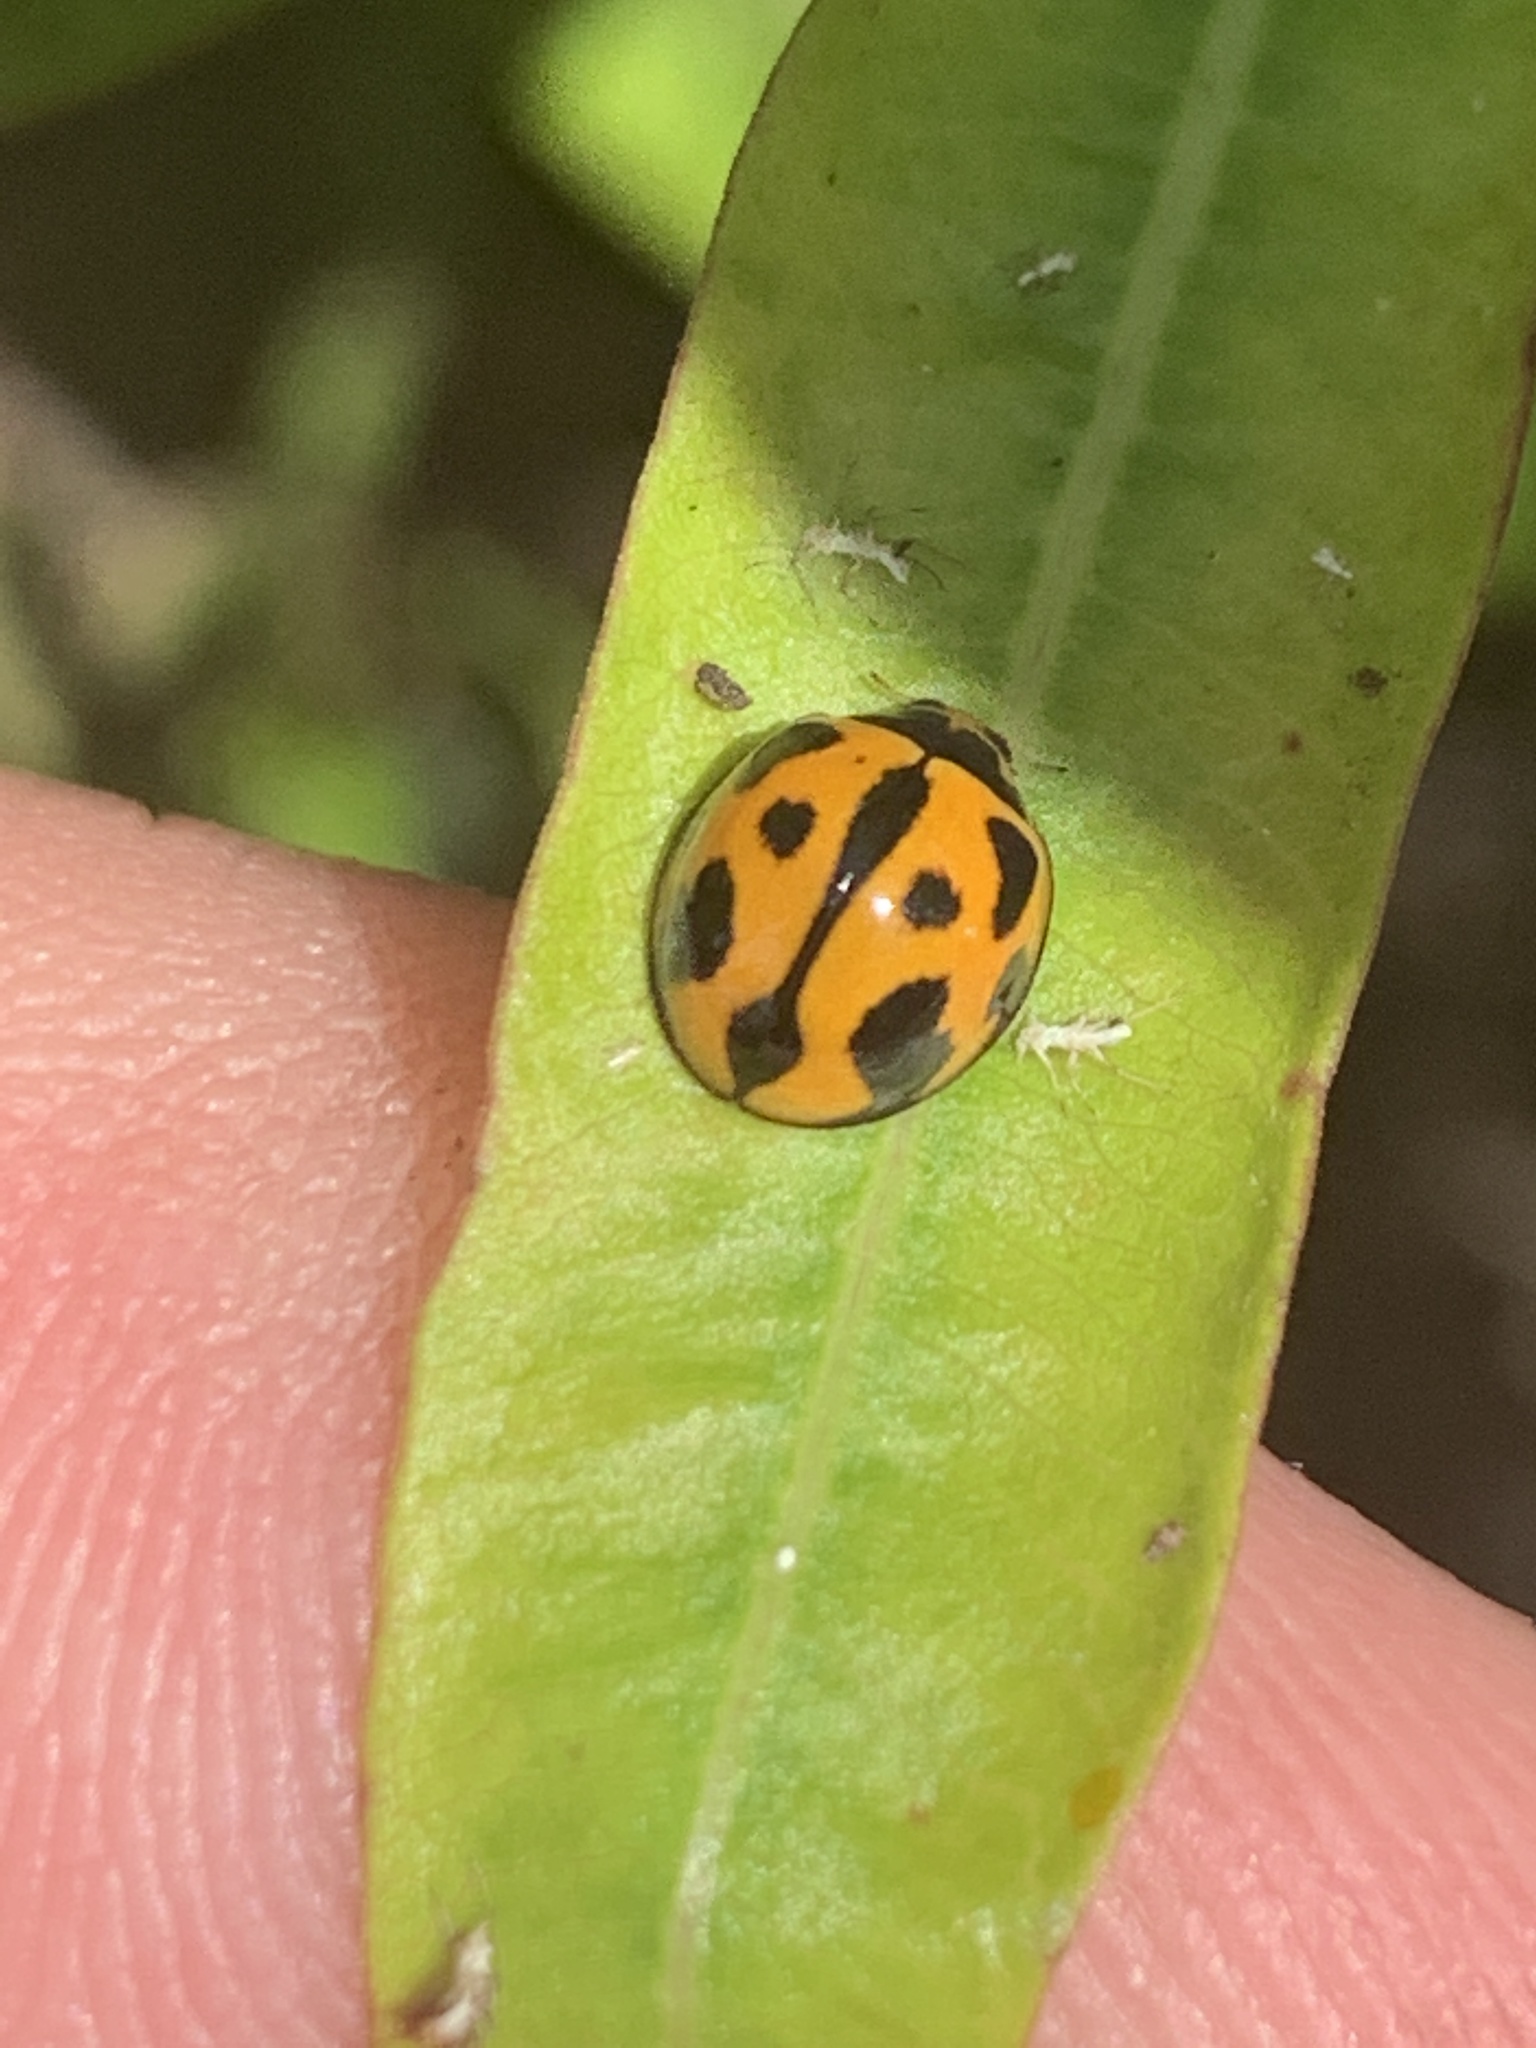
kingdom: Animalia
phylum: Arthropoda
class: Insecta
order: Coleoptera
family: Coccinellidae
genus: Coelophora
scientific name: Coelophora inaequalis
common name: Common australian lady beetle
